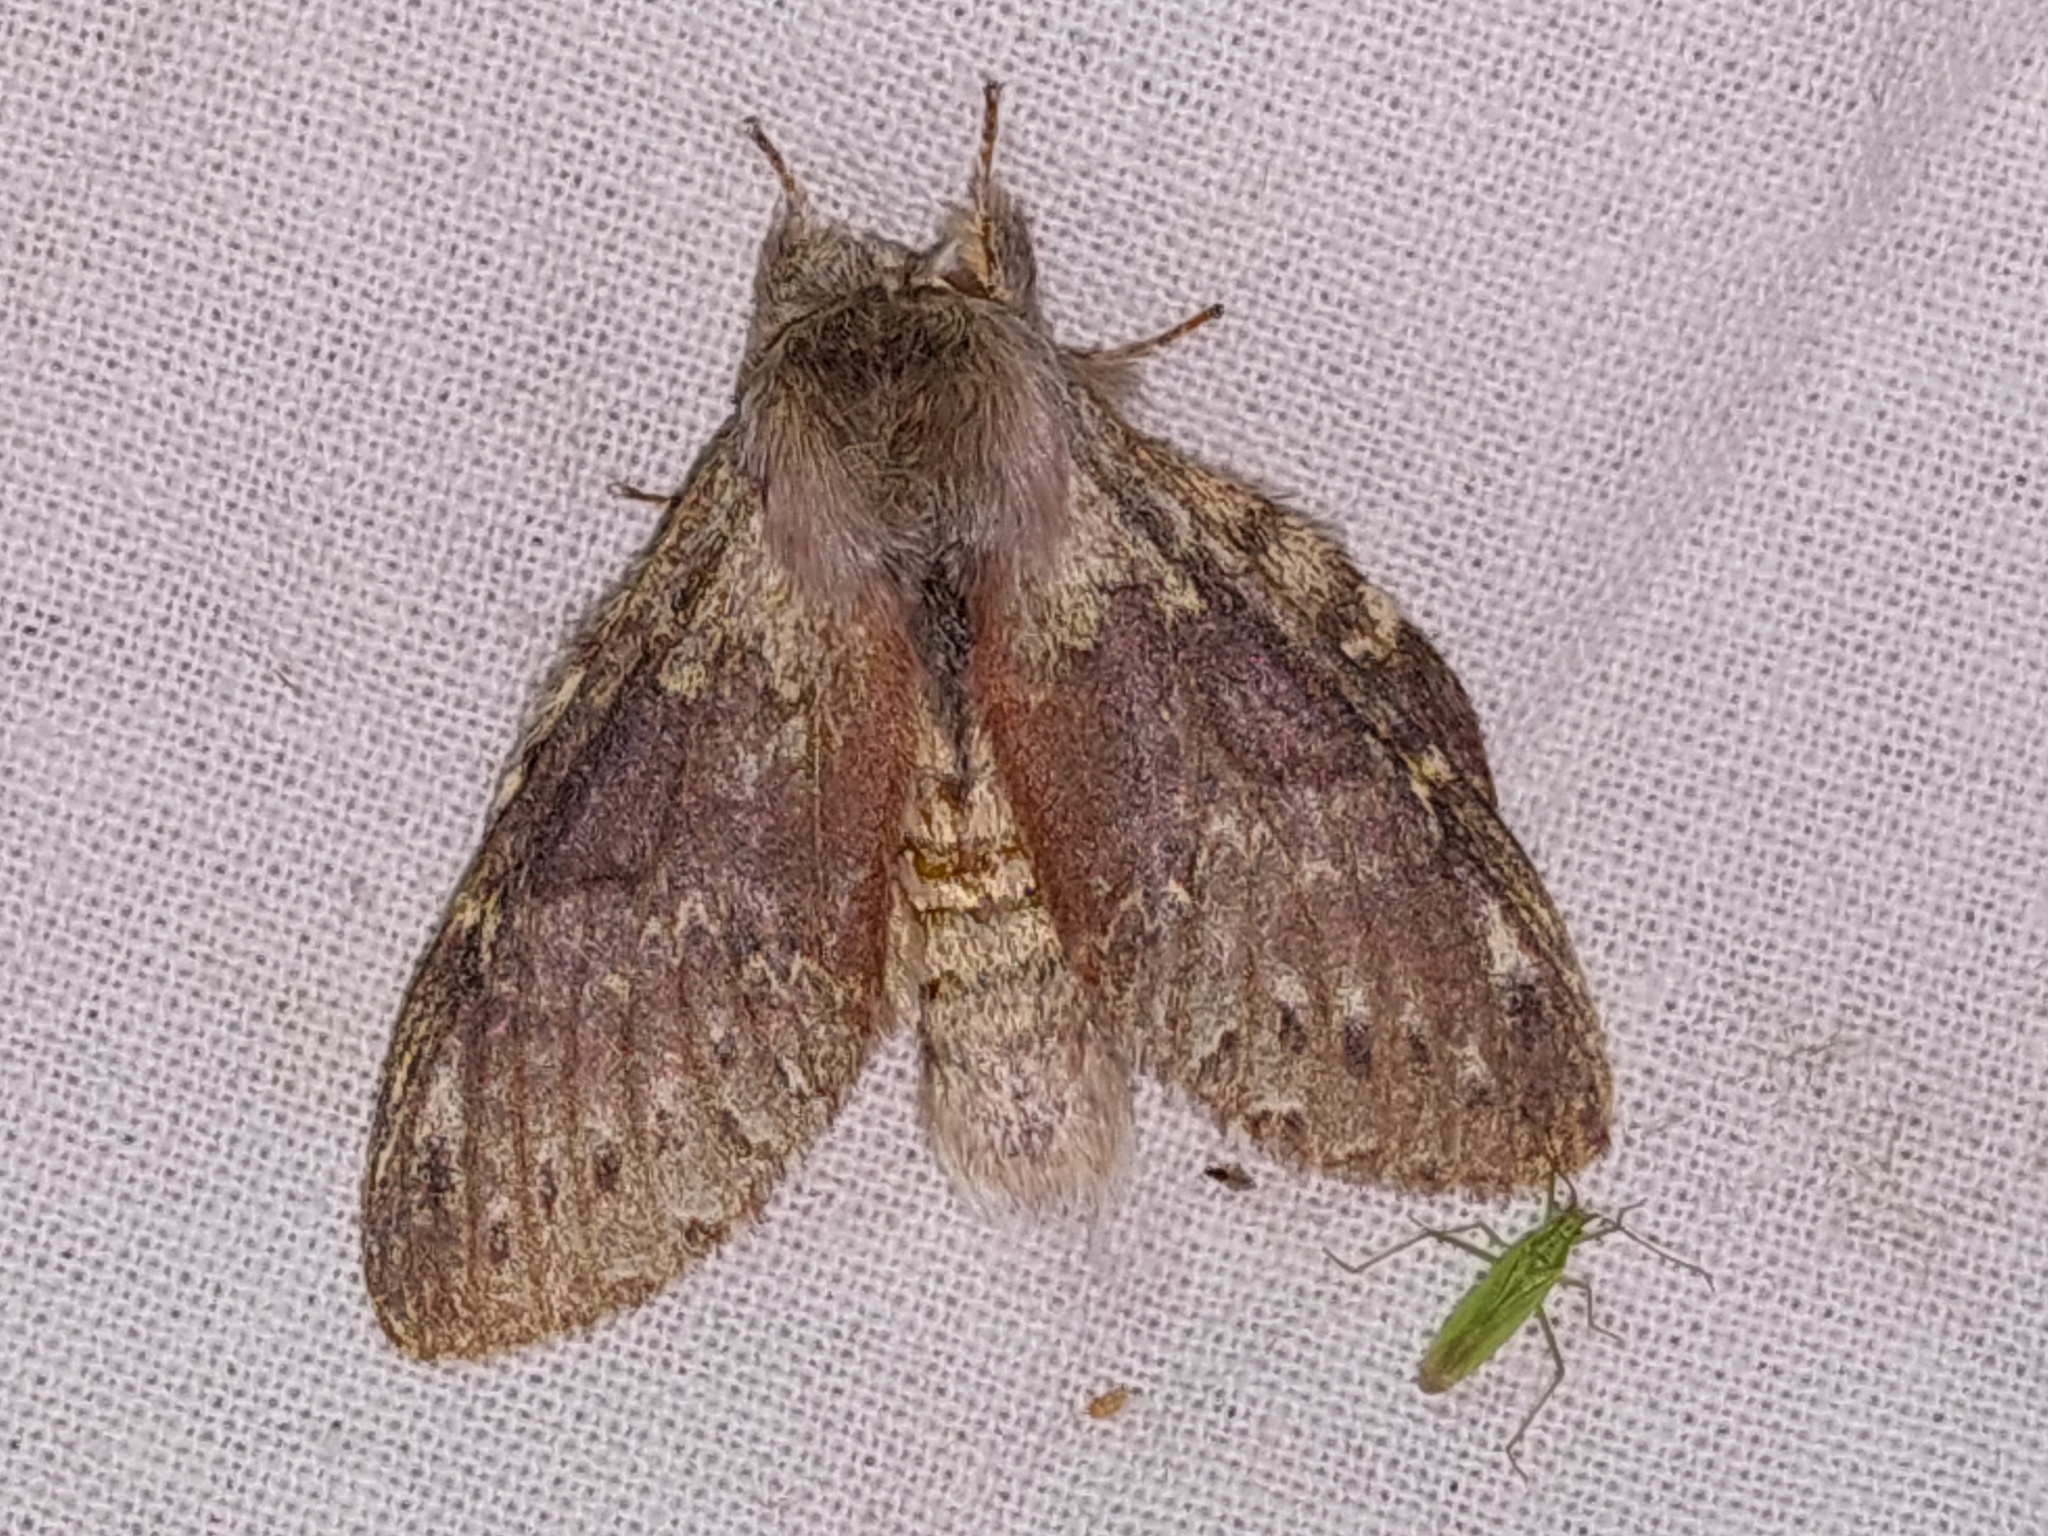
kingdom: Animalia
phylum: Arthropoda
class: Insecta
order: Lepidoptera
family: Notodontidae
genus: Stauropus
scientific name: Stauropus fagi
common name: Lobster moth
